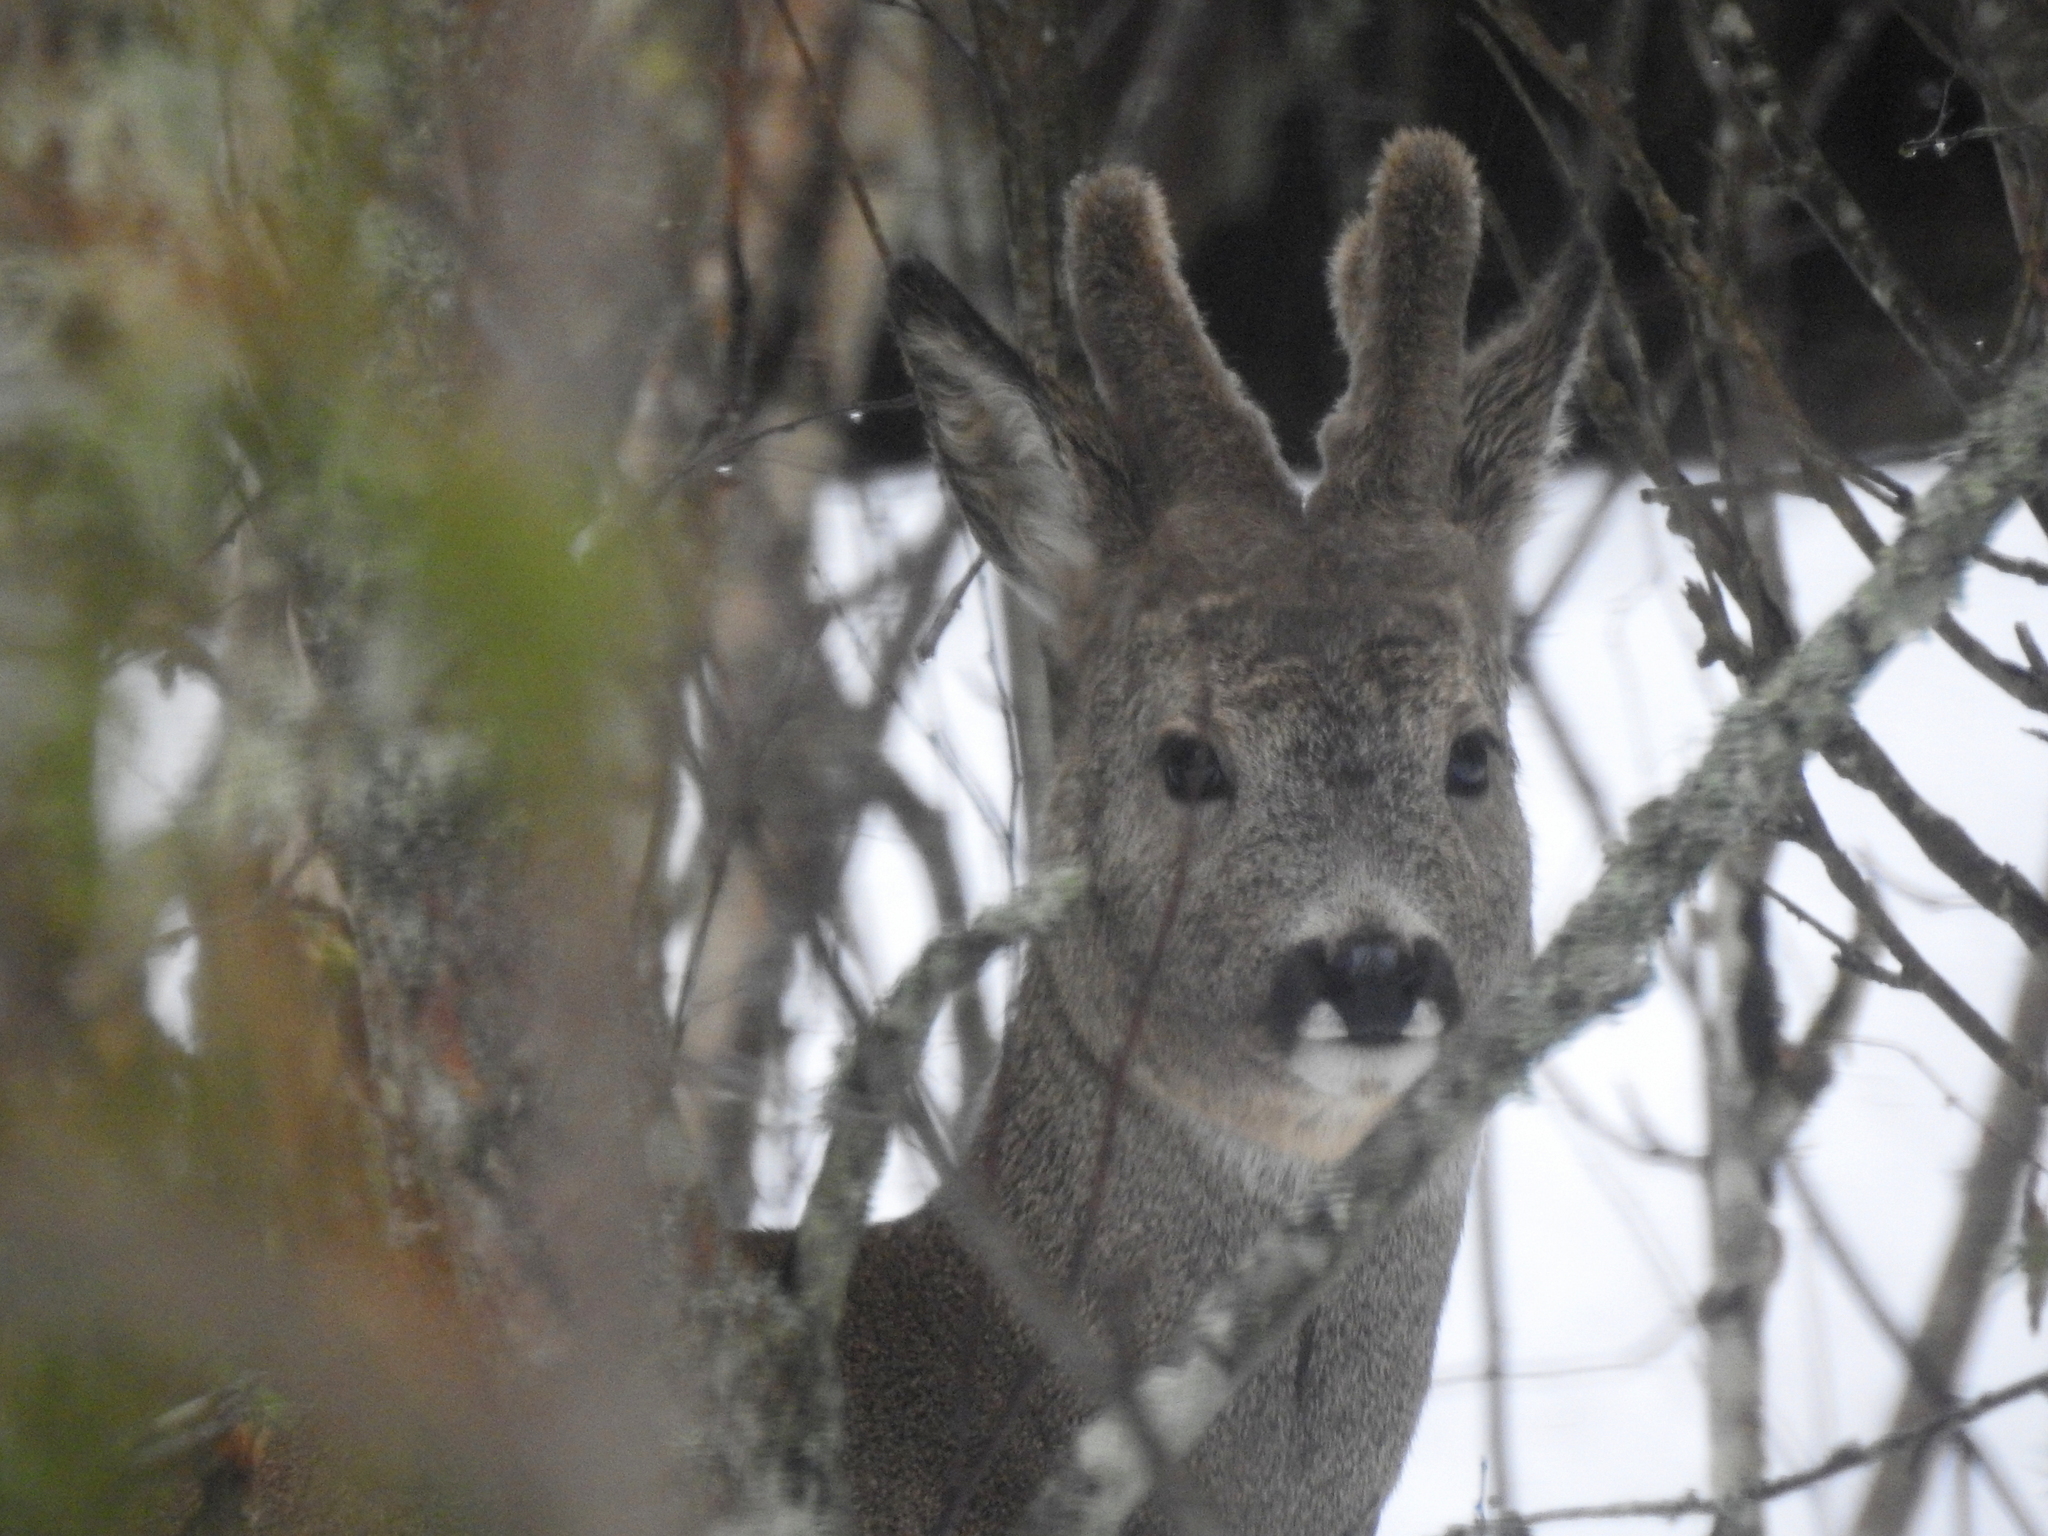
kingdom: Animalia
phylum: Chordata
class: Mammalia
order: Artiodactyla
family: Cervidae
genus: Capreolus
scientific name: Capreolus capreolus
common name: Western roe deer
